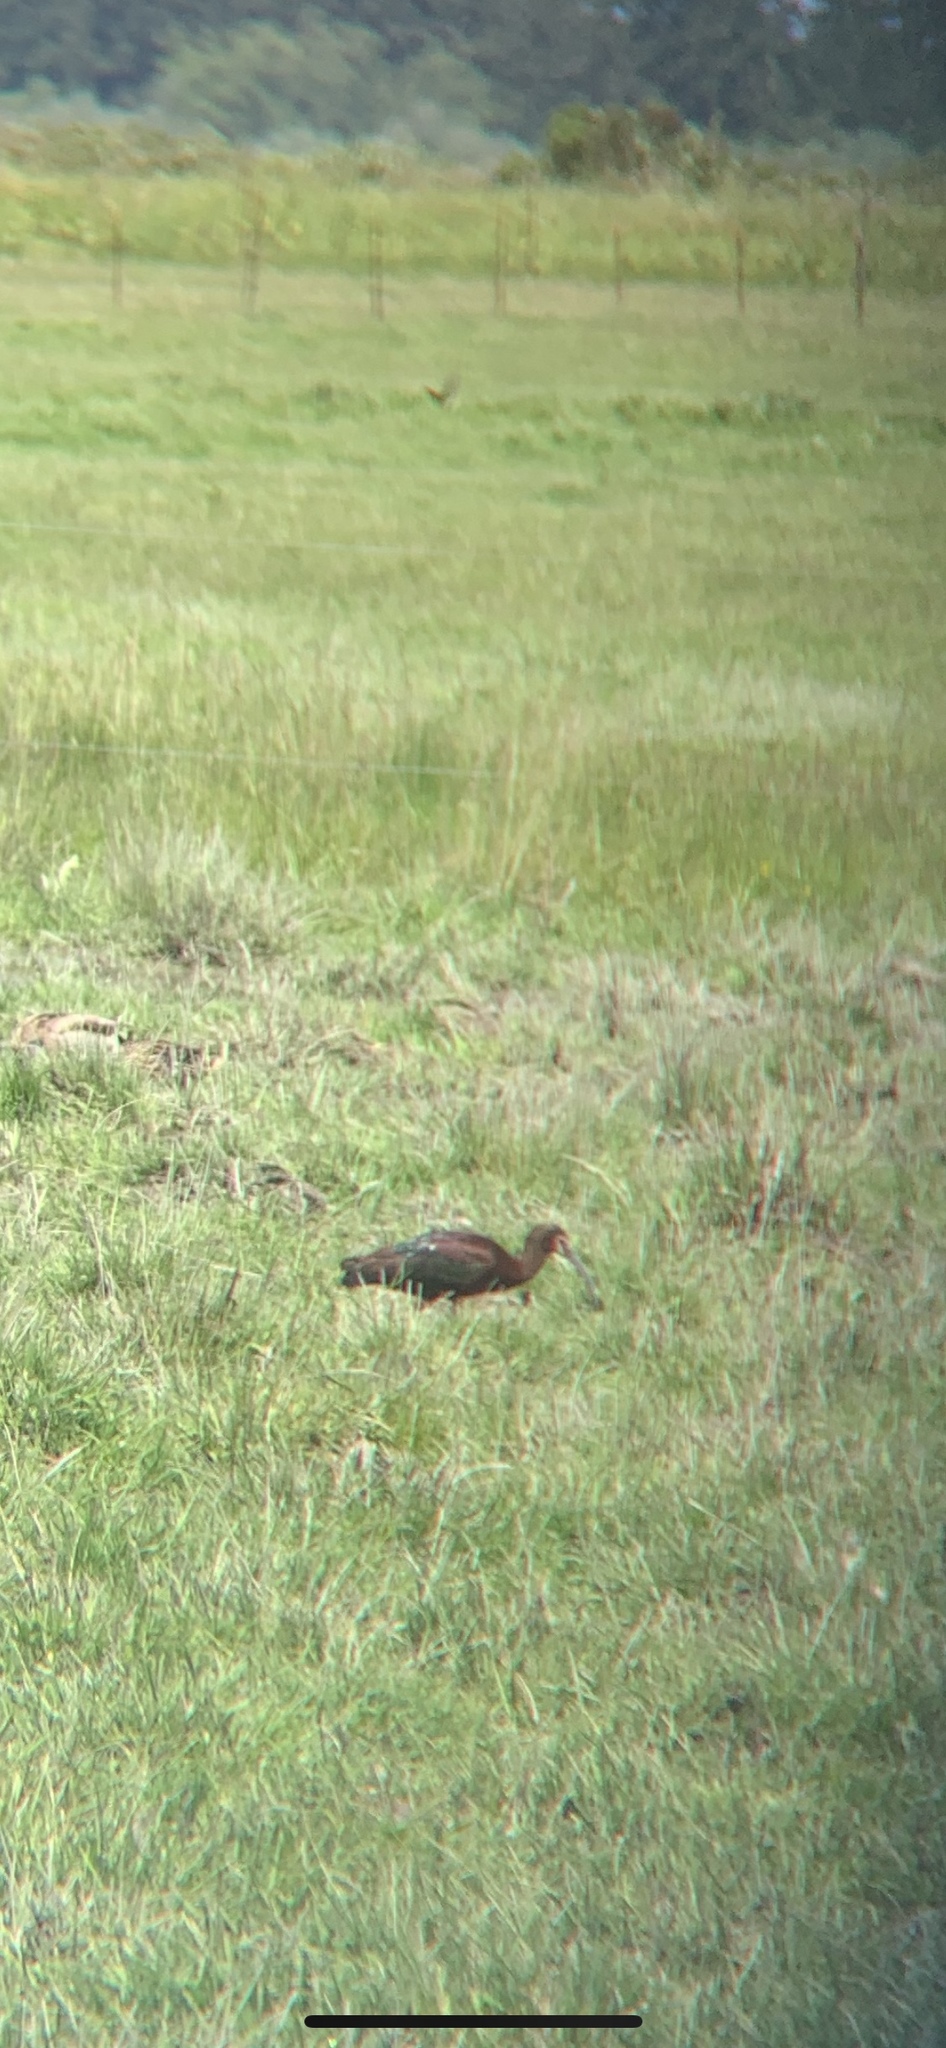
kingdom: Animalia
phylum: Chordata
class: Aves
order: Pelecaniformes
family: Threskiornithidae
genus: Plegadis
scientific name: Plegadis chihi
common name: White-faced ibis
